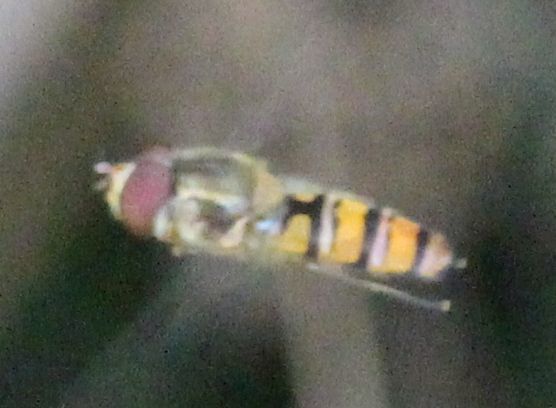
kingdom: Animalia
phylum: Arthropoda
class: Insecta
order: Diptera
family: Syrphidae
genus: Episyrphus
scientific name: Episyrphus balteatus
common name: Marmalade hoverfly
